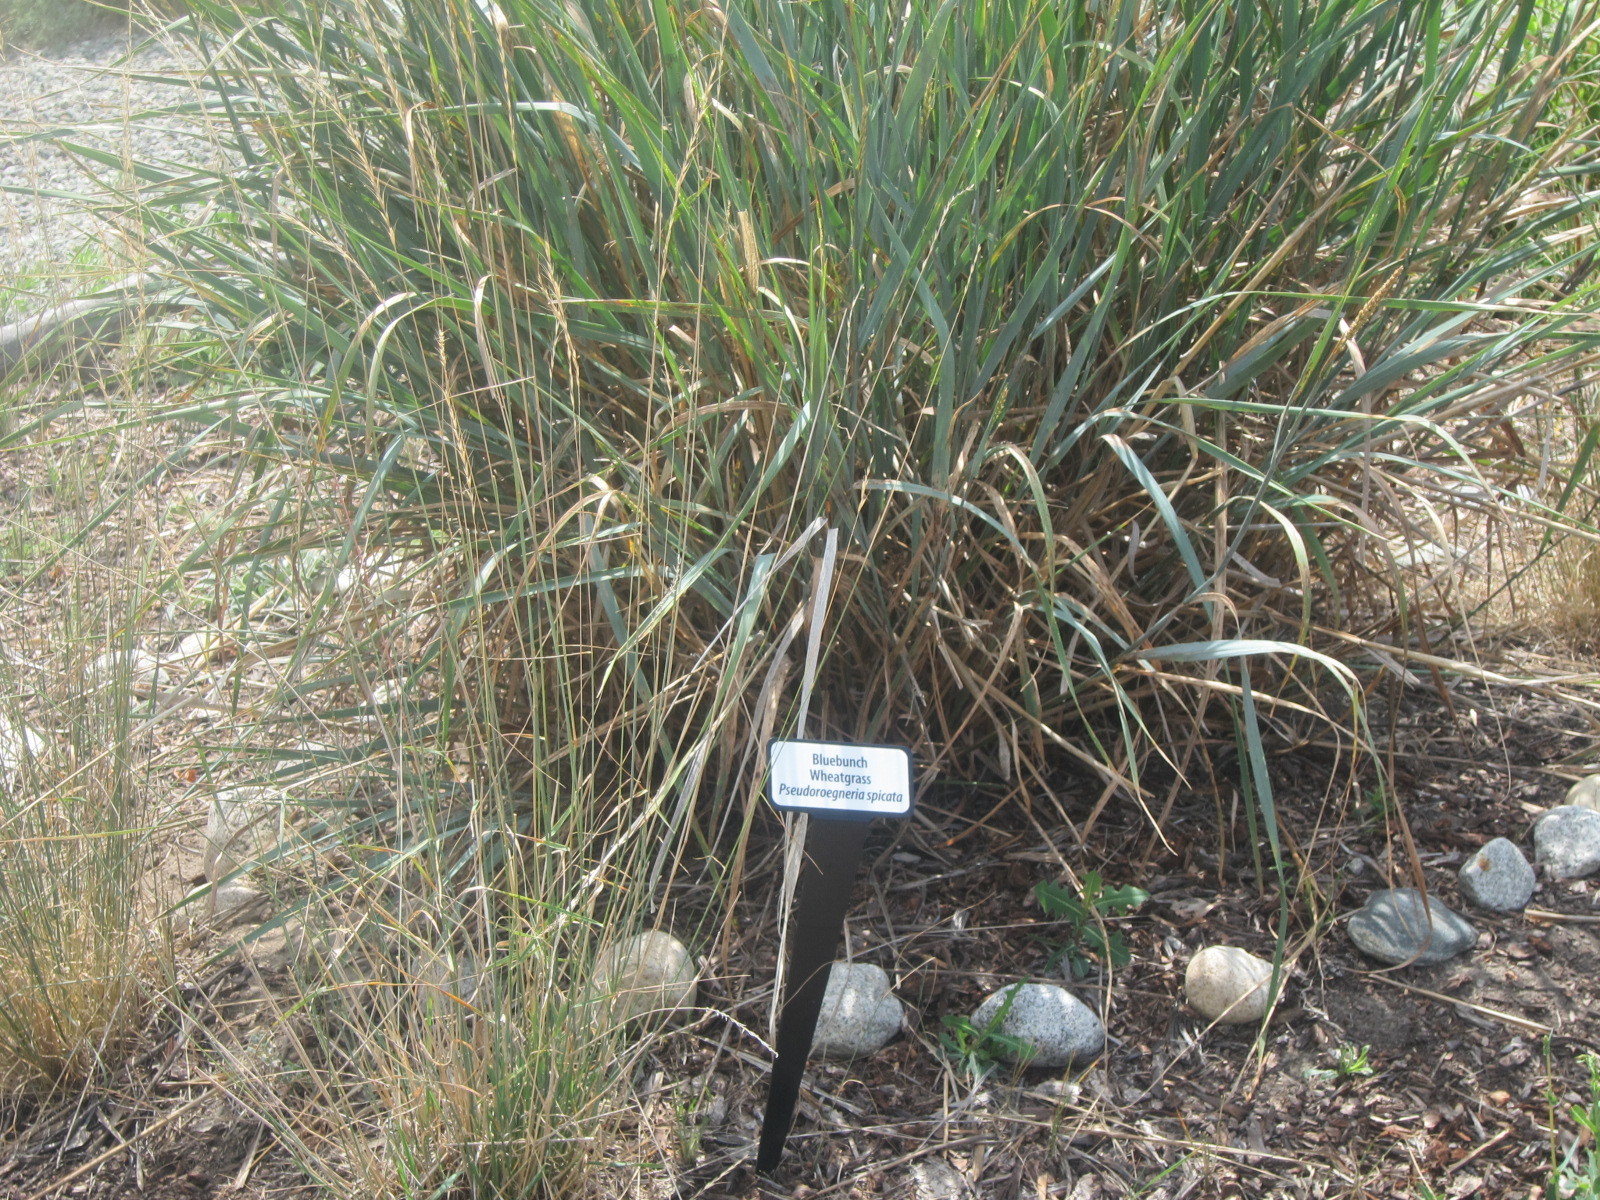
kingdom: Plantae
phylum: Tracheophyta
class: Liliopsida
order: Poales
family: Poaceae
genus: Pseudoroegneria
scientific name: Pseudoroegneria spicata
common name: Bluebunch wheatgrass
